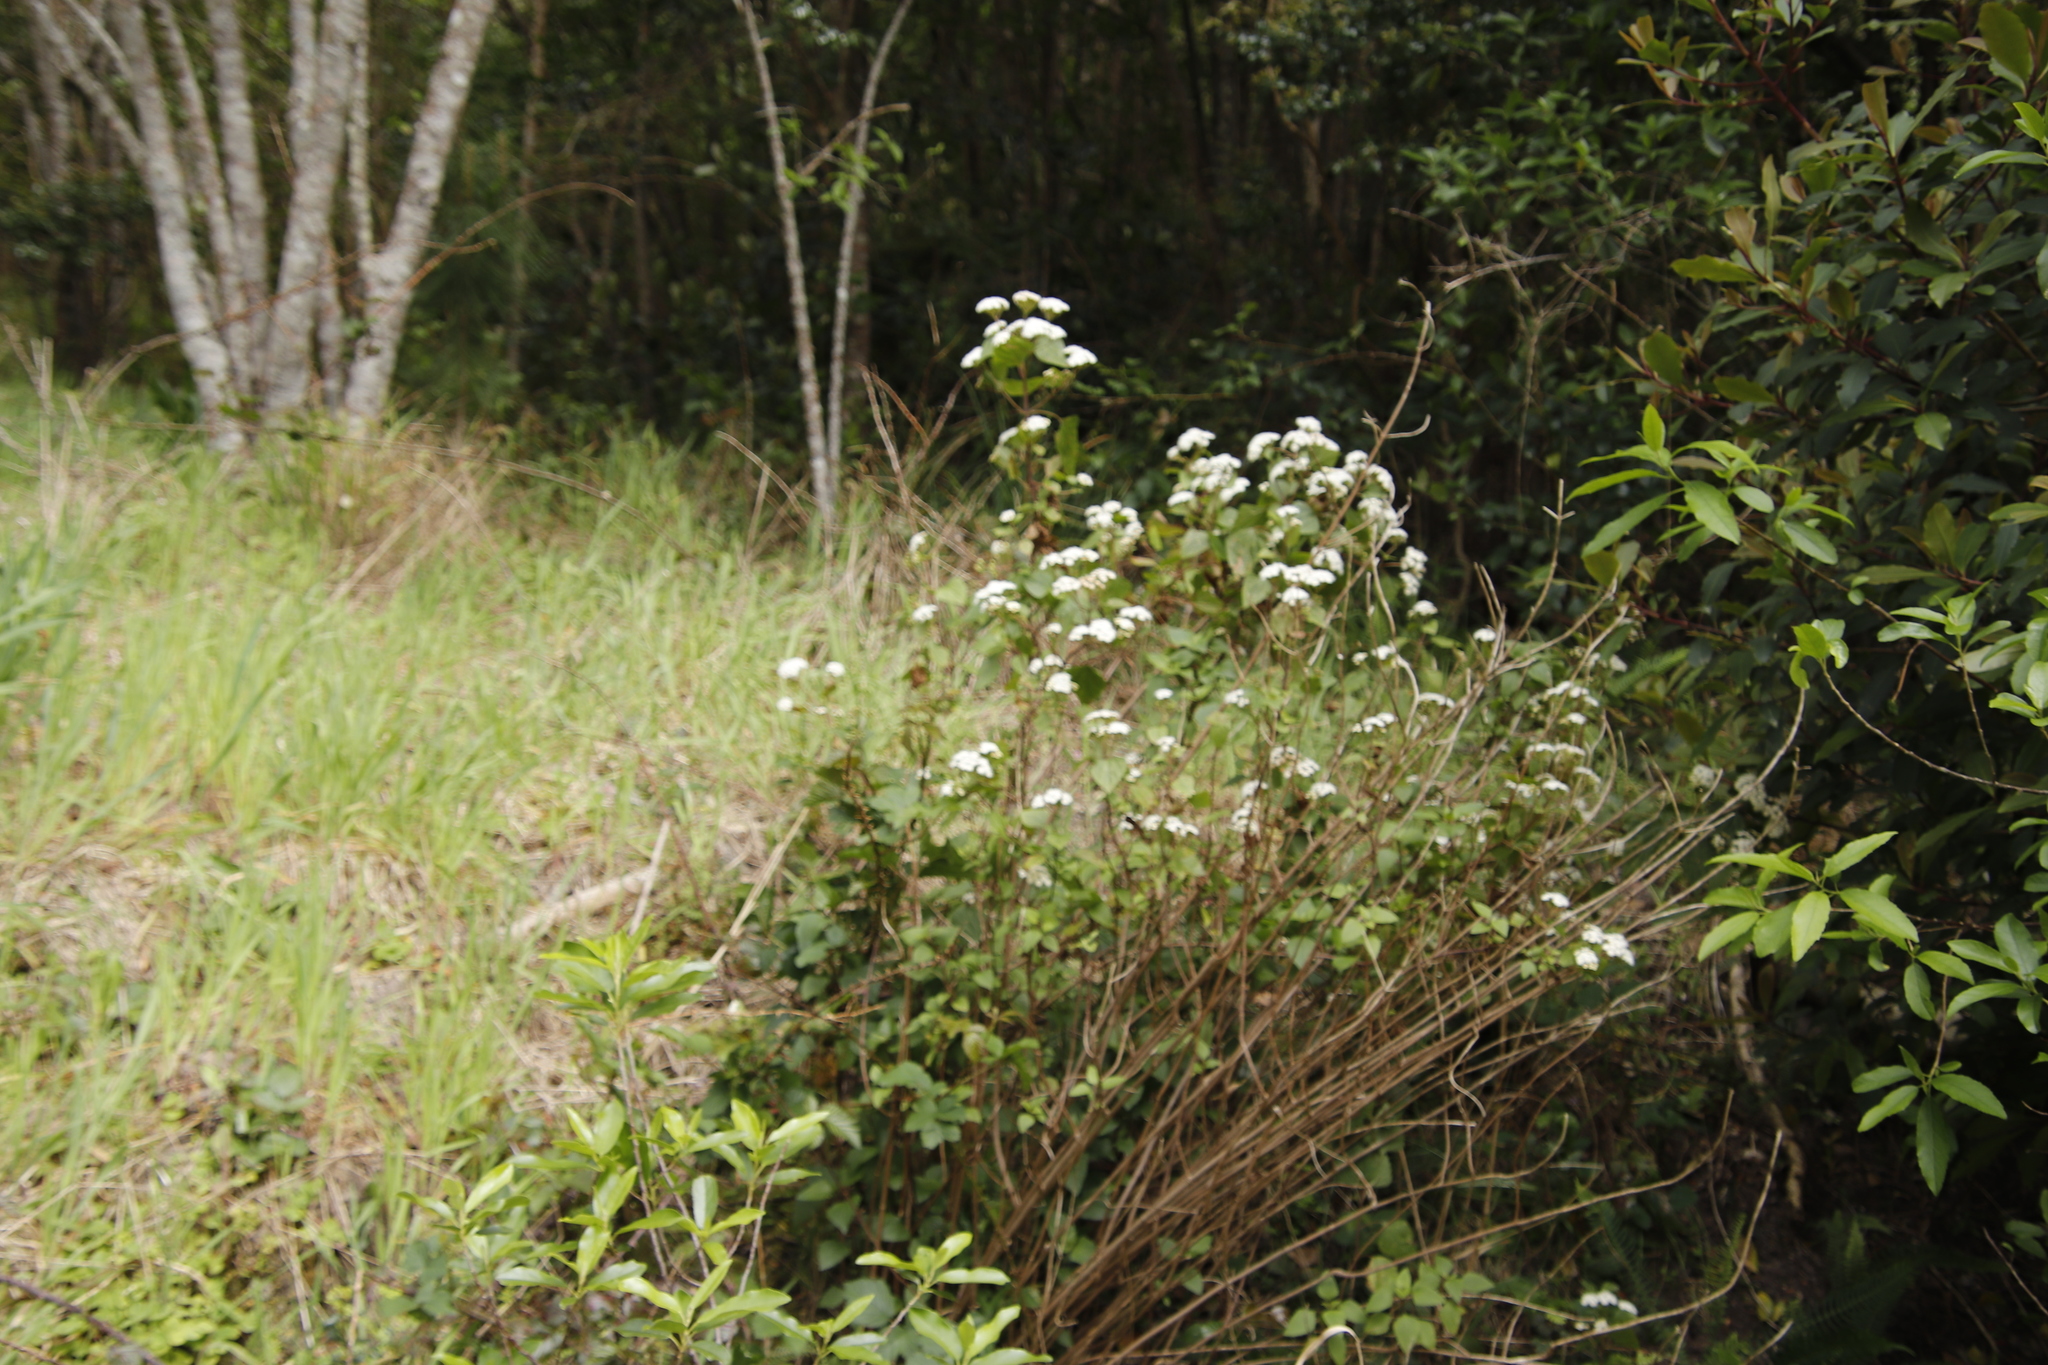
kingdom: Plantae
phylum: Tracheophyta
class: Magnoliopsida
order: Asterales
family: Asteraceae
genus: Ageratina
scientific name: Ageratina adenophora
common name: Sticky snakeroot
